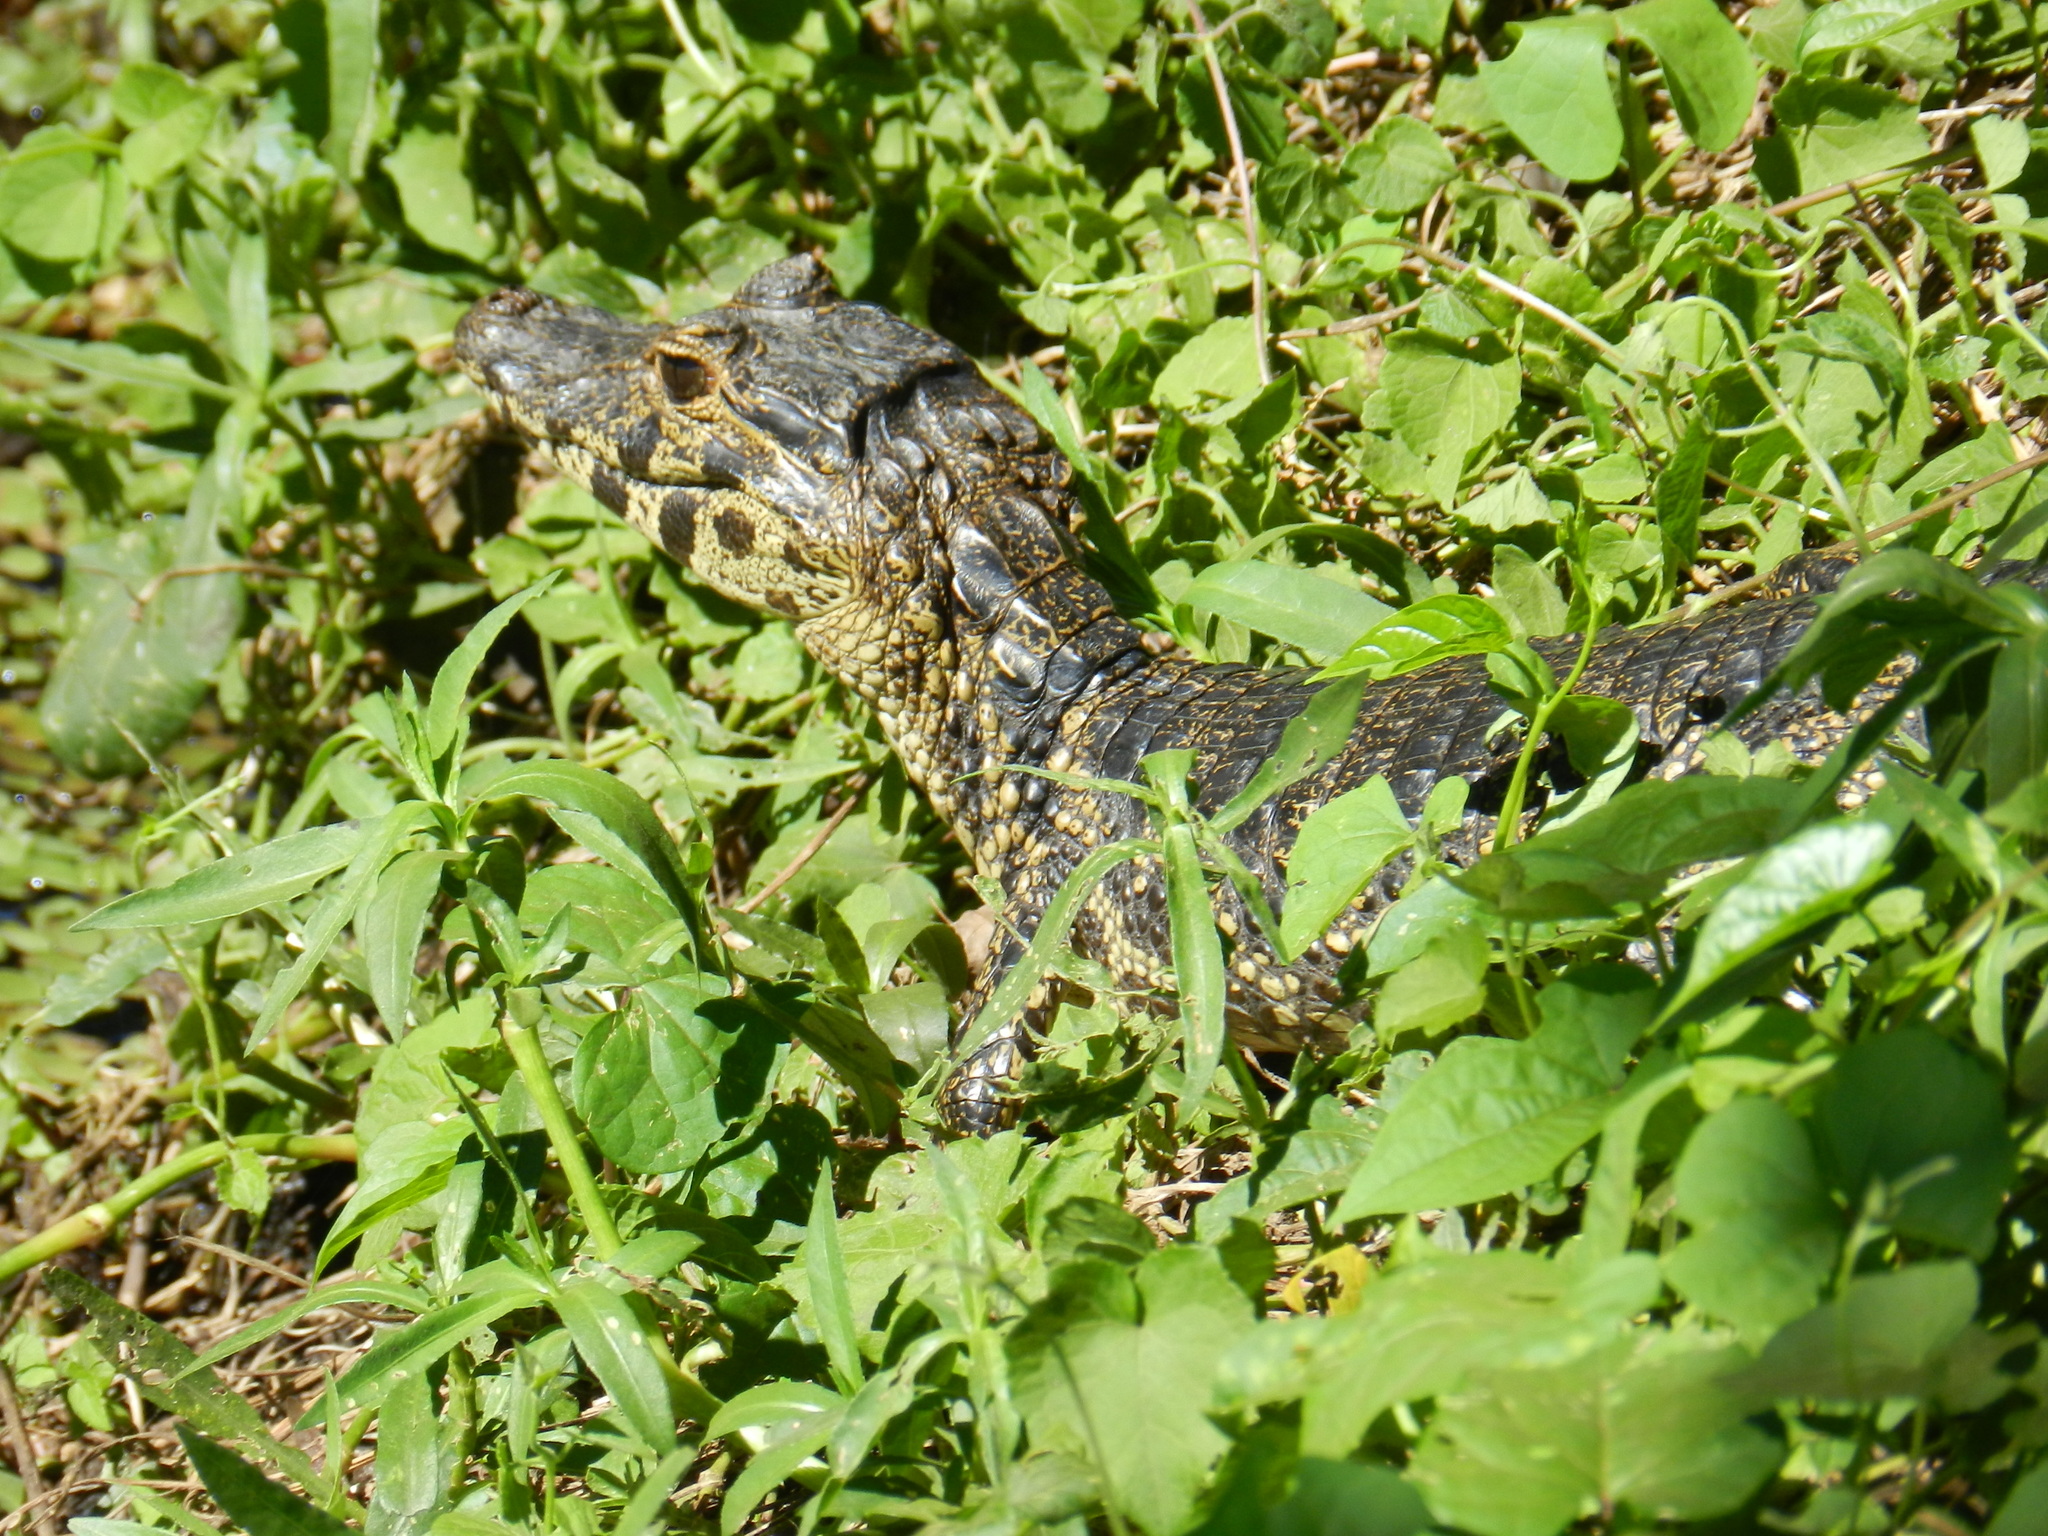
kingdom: Animalia
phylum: Chordata
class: Crocodylia
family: Alligatoridae
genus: Caiman
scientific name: Caiman yacare
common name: Yacare caiman
